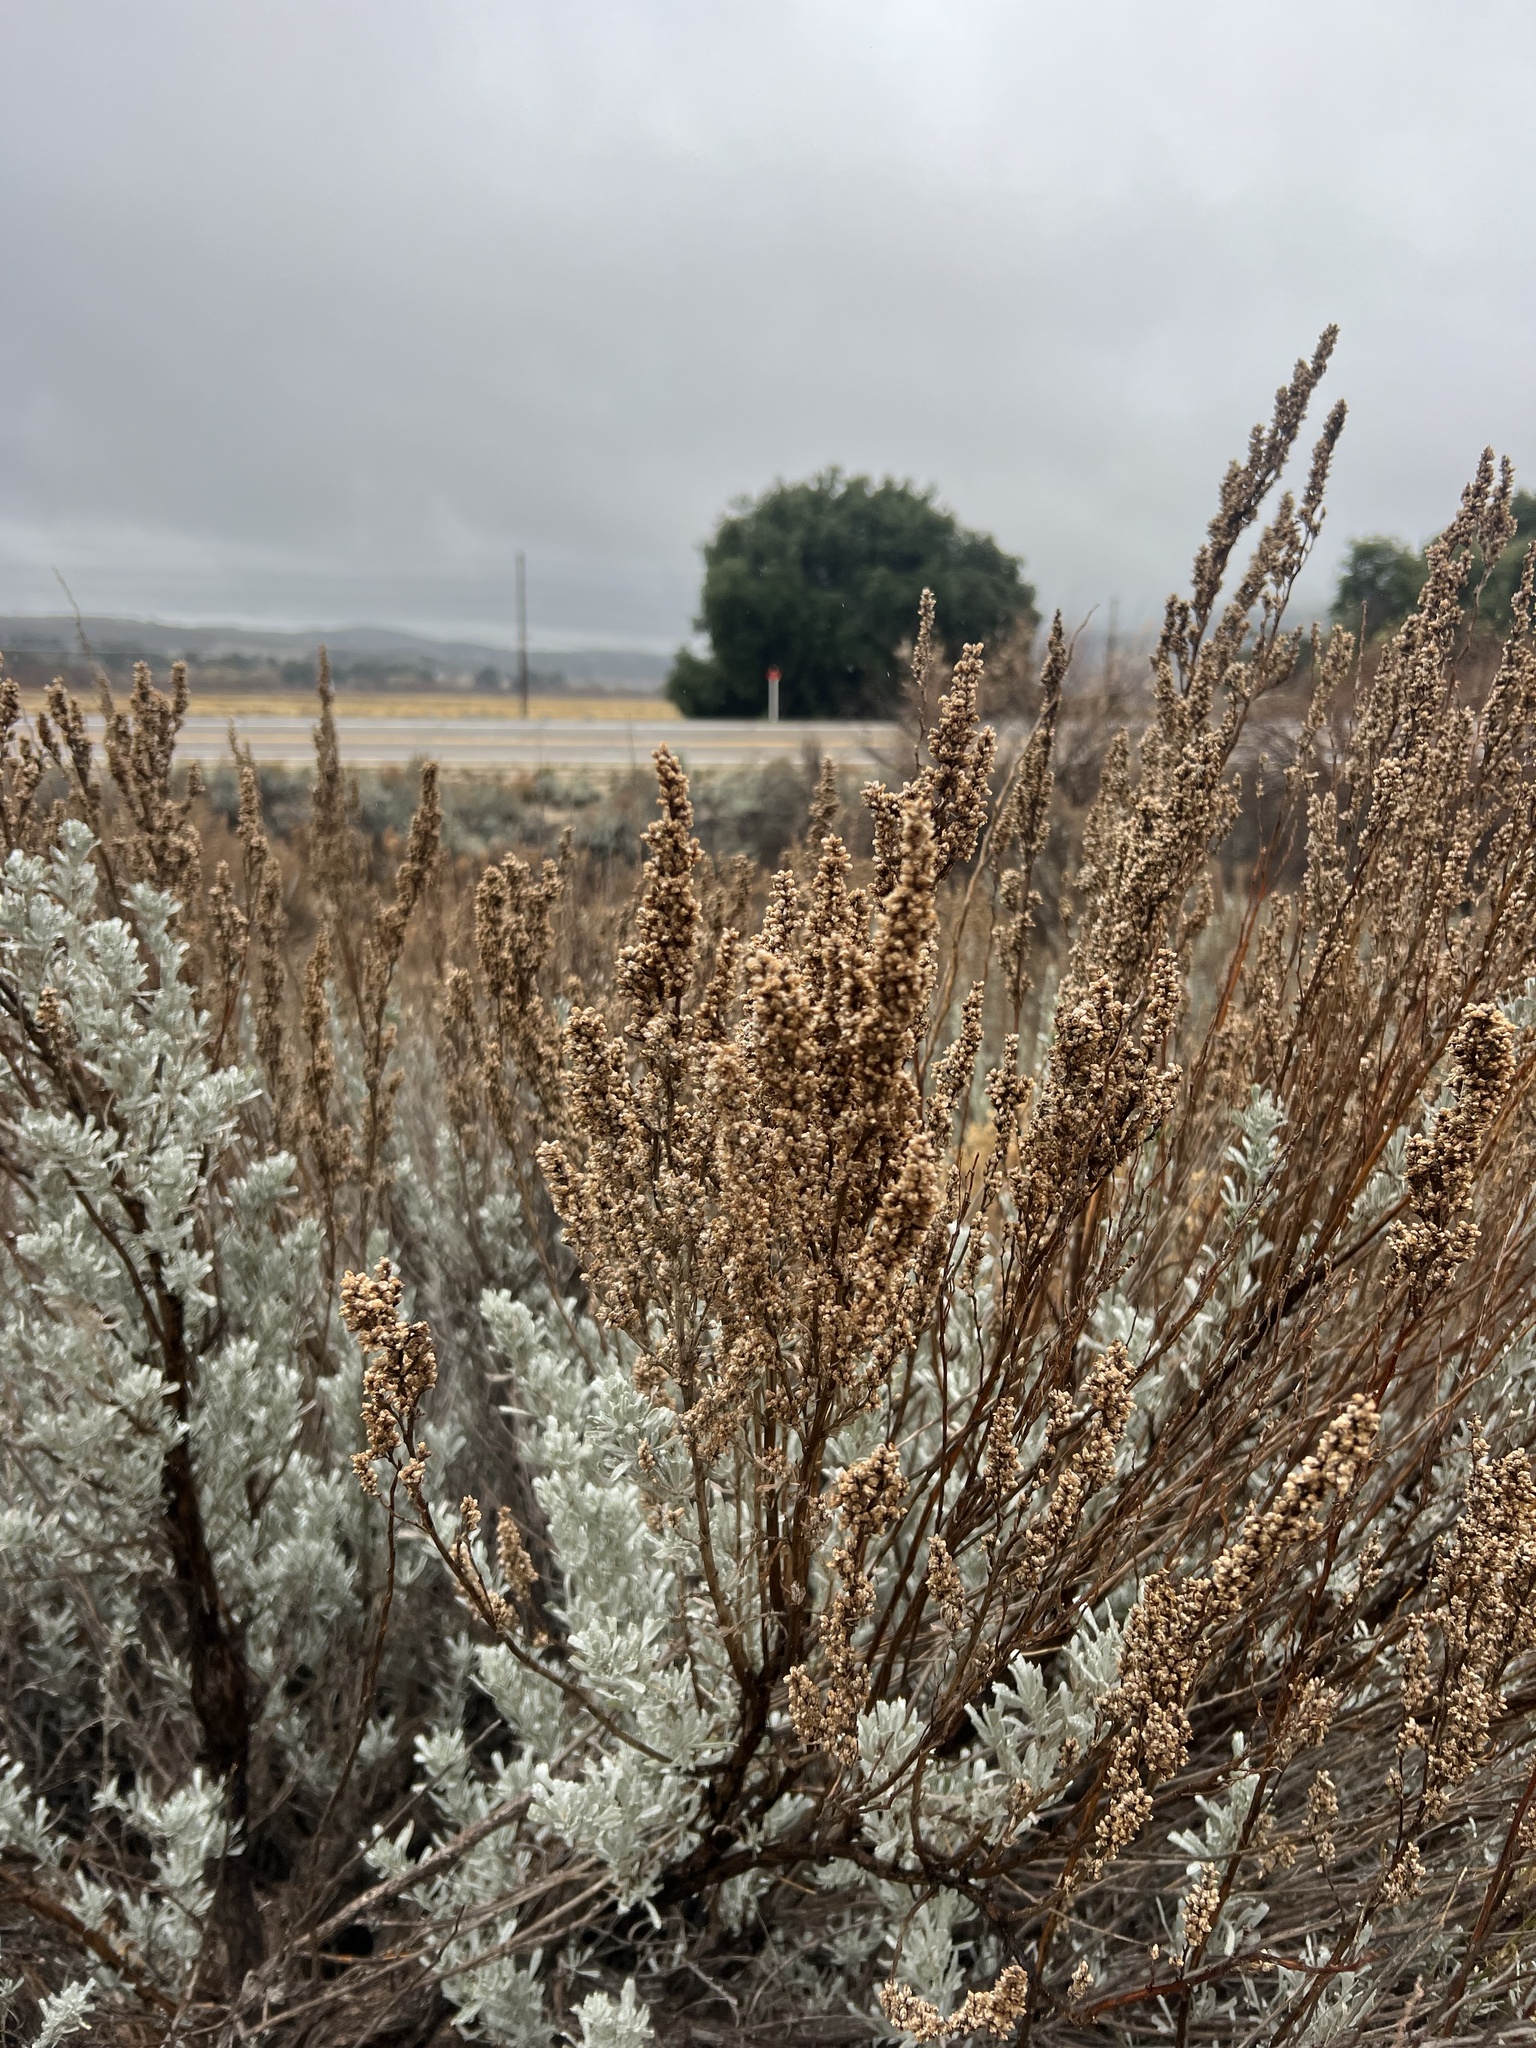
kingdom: Plantae
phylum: Tracheophyta
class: Magnoliopsida
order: Asterales
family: Asteraceae
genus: Artemisia
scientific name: Artemisia tridentata
